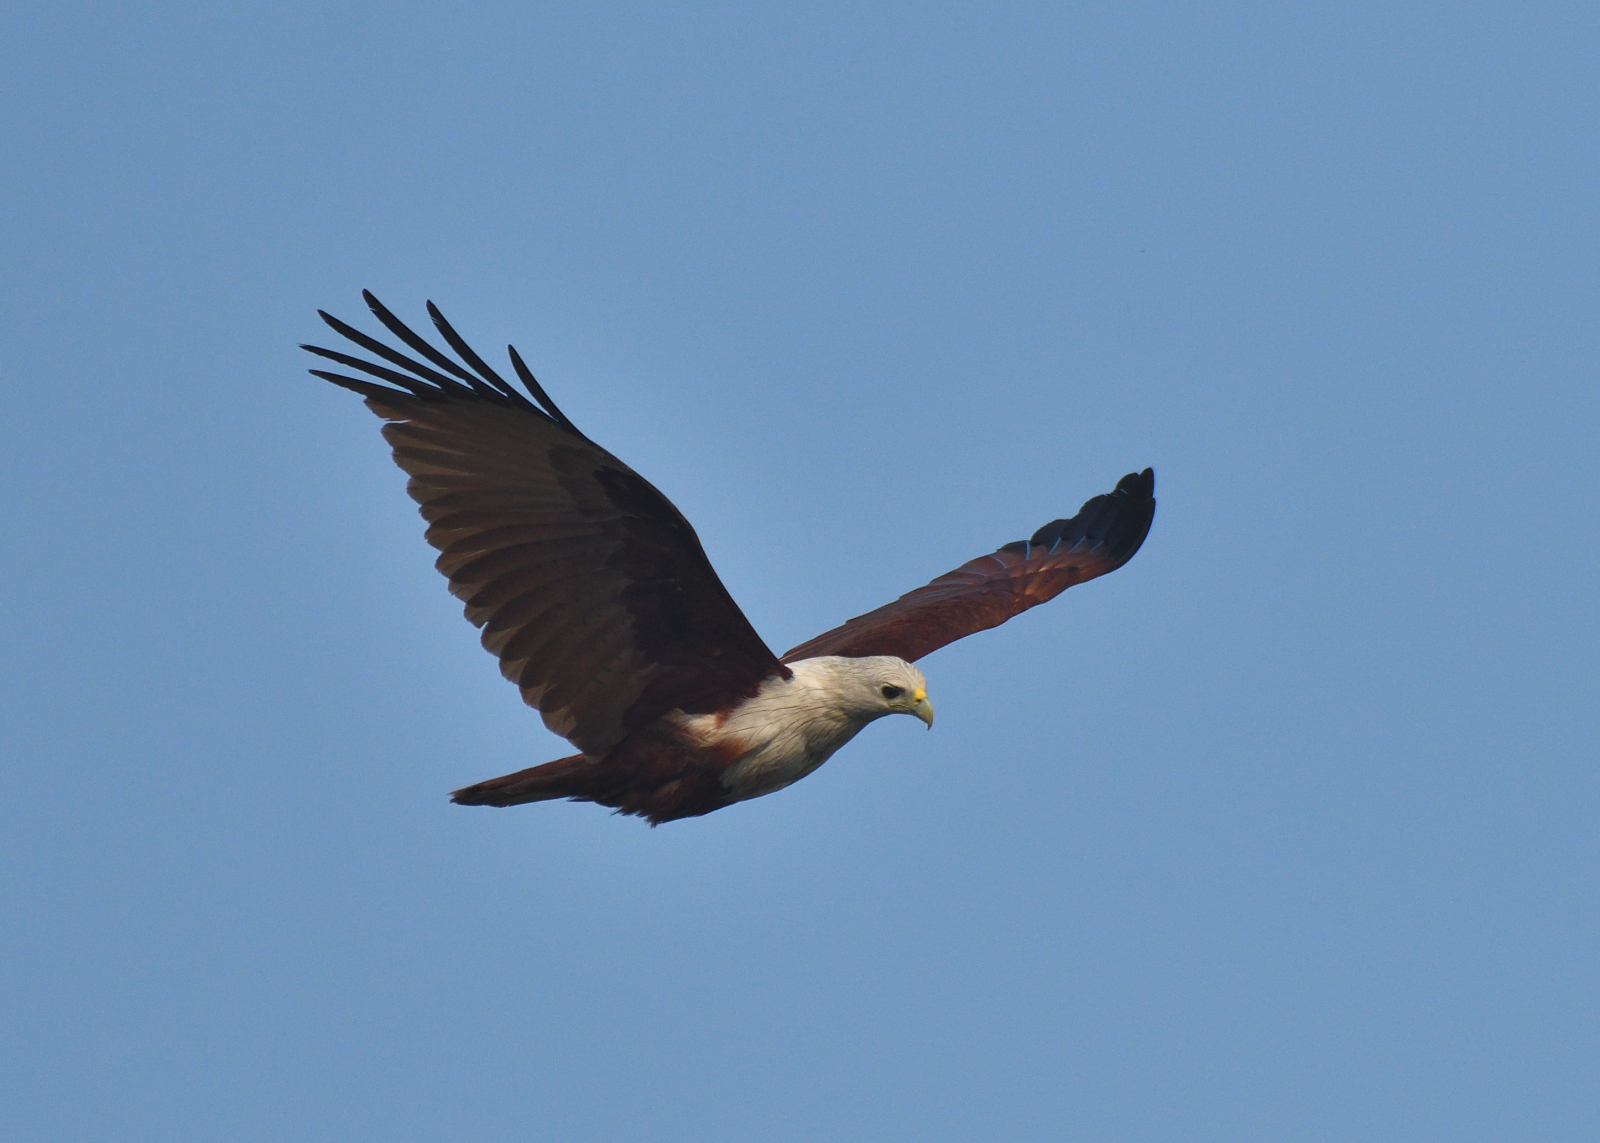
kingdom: Animalia
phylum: Chordata
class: Aves
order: Accipitriformes
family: Accipitridae
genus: Haliastur
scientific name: Haliastur indus
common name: Brahminy kite
